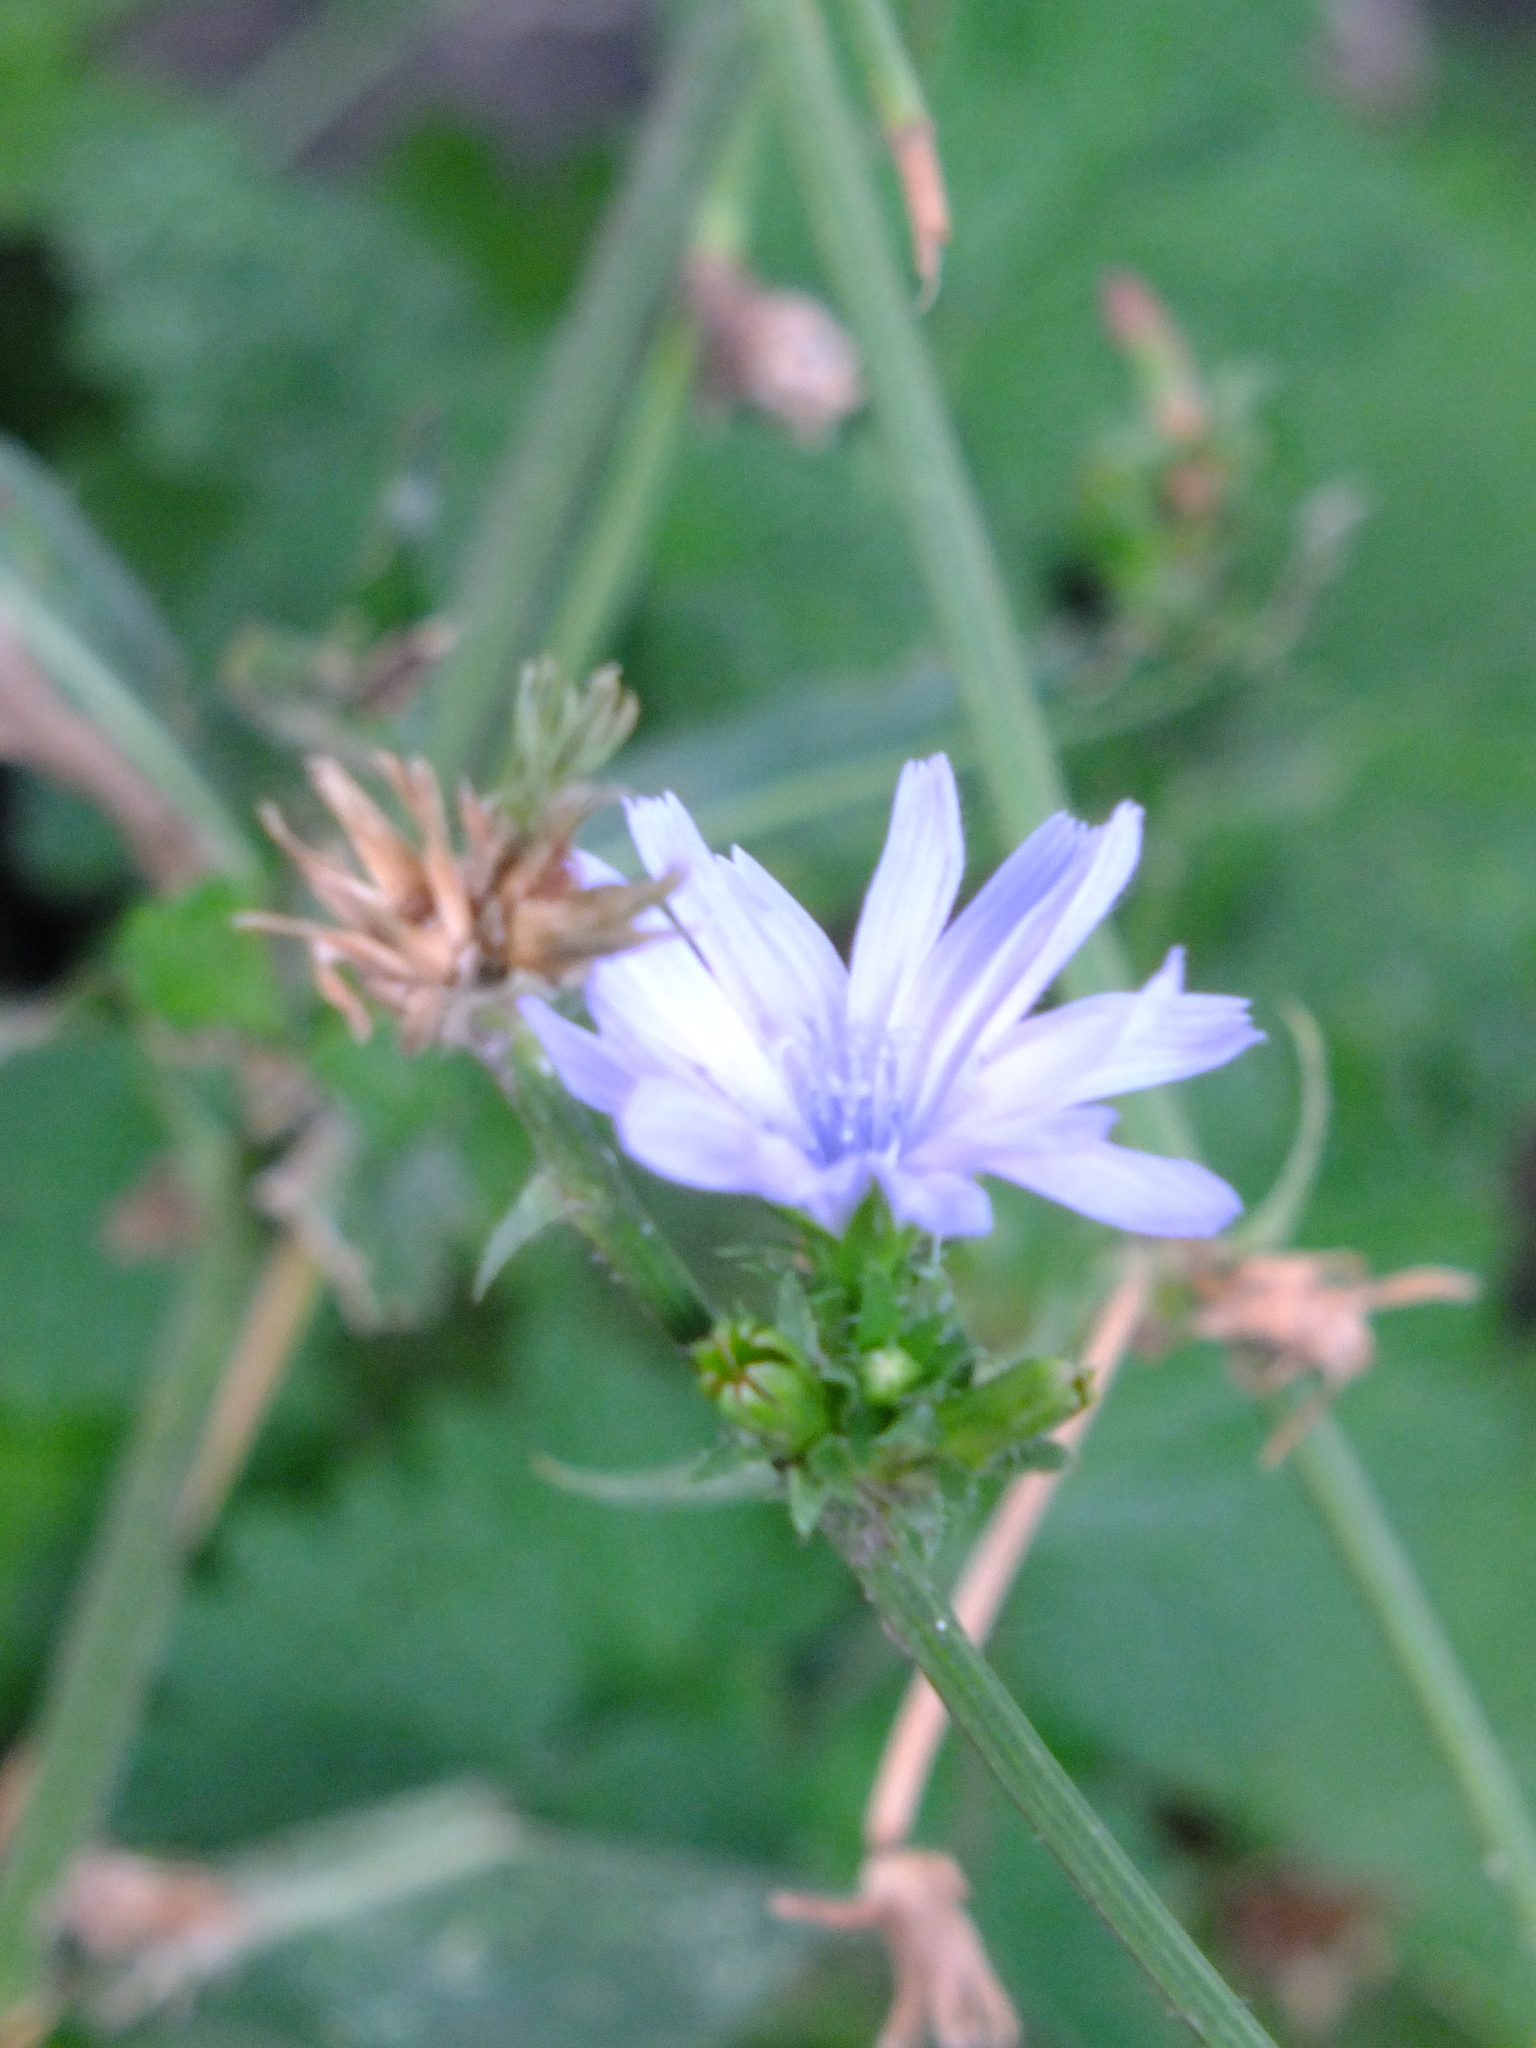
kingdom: Plantae
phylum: Tracheophyta
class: Magnoliopsida
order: Asterales
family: Asteraceae
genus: Cichorium
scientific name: Cichorium intybus
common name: Chicory
